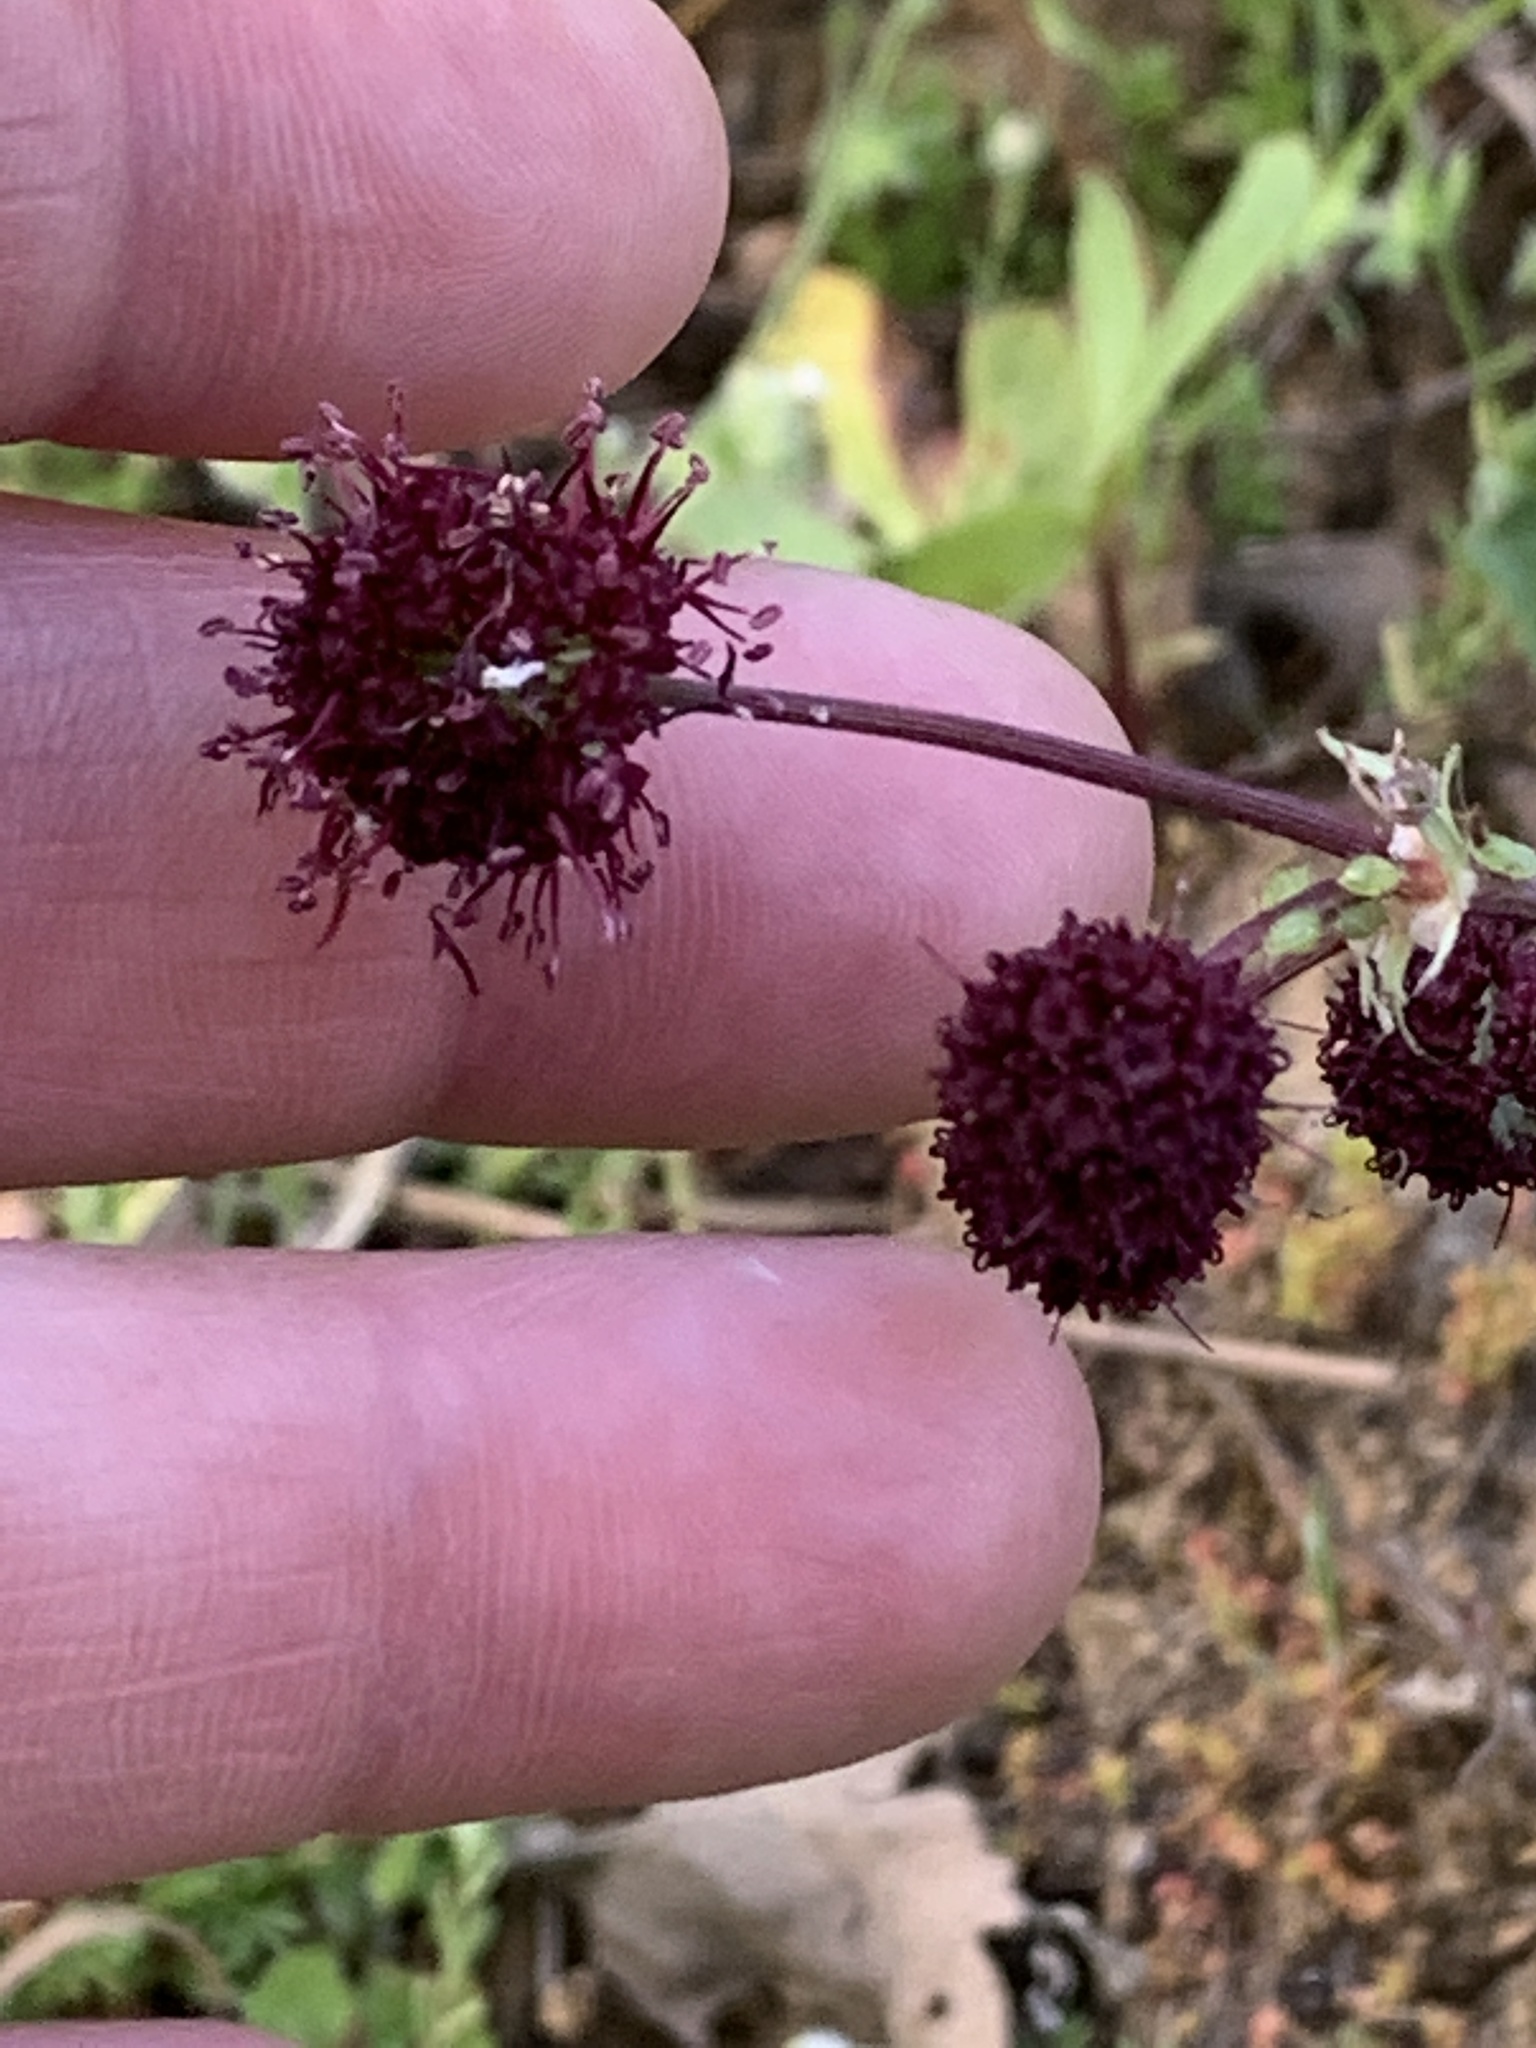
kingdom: Plantae
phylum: Tracheophyta
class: Magnoliopsida
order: Apiales
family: Apiaceae
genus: Sanicula
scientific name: Sanicula bipinnatifida
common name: Shoe-buttons
